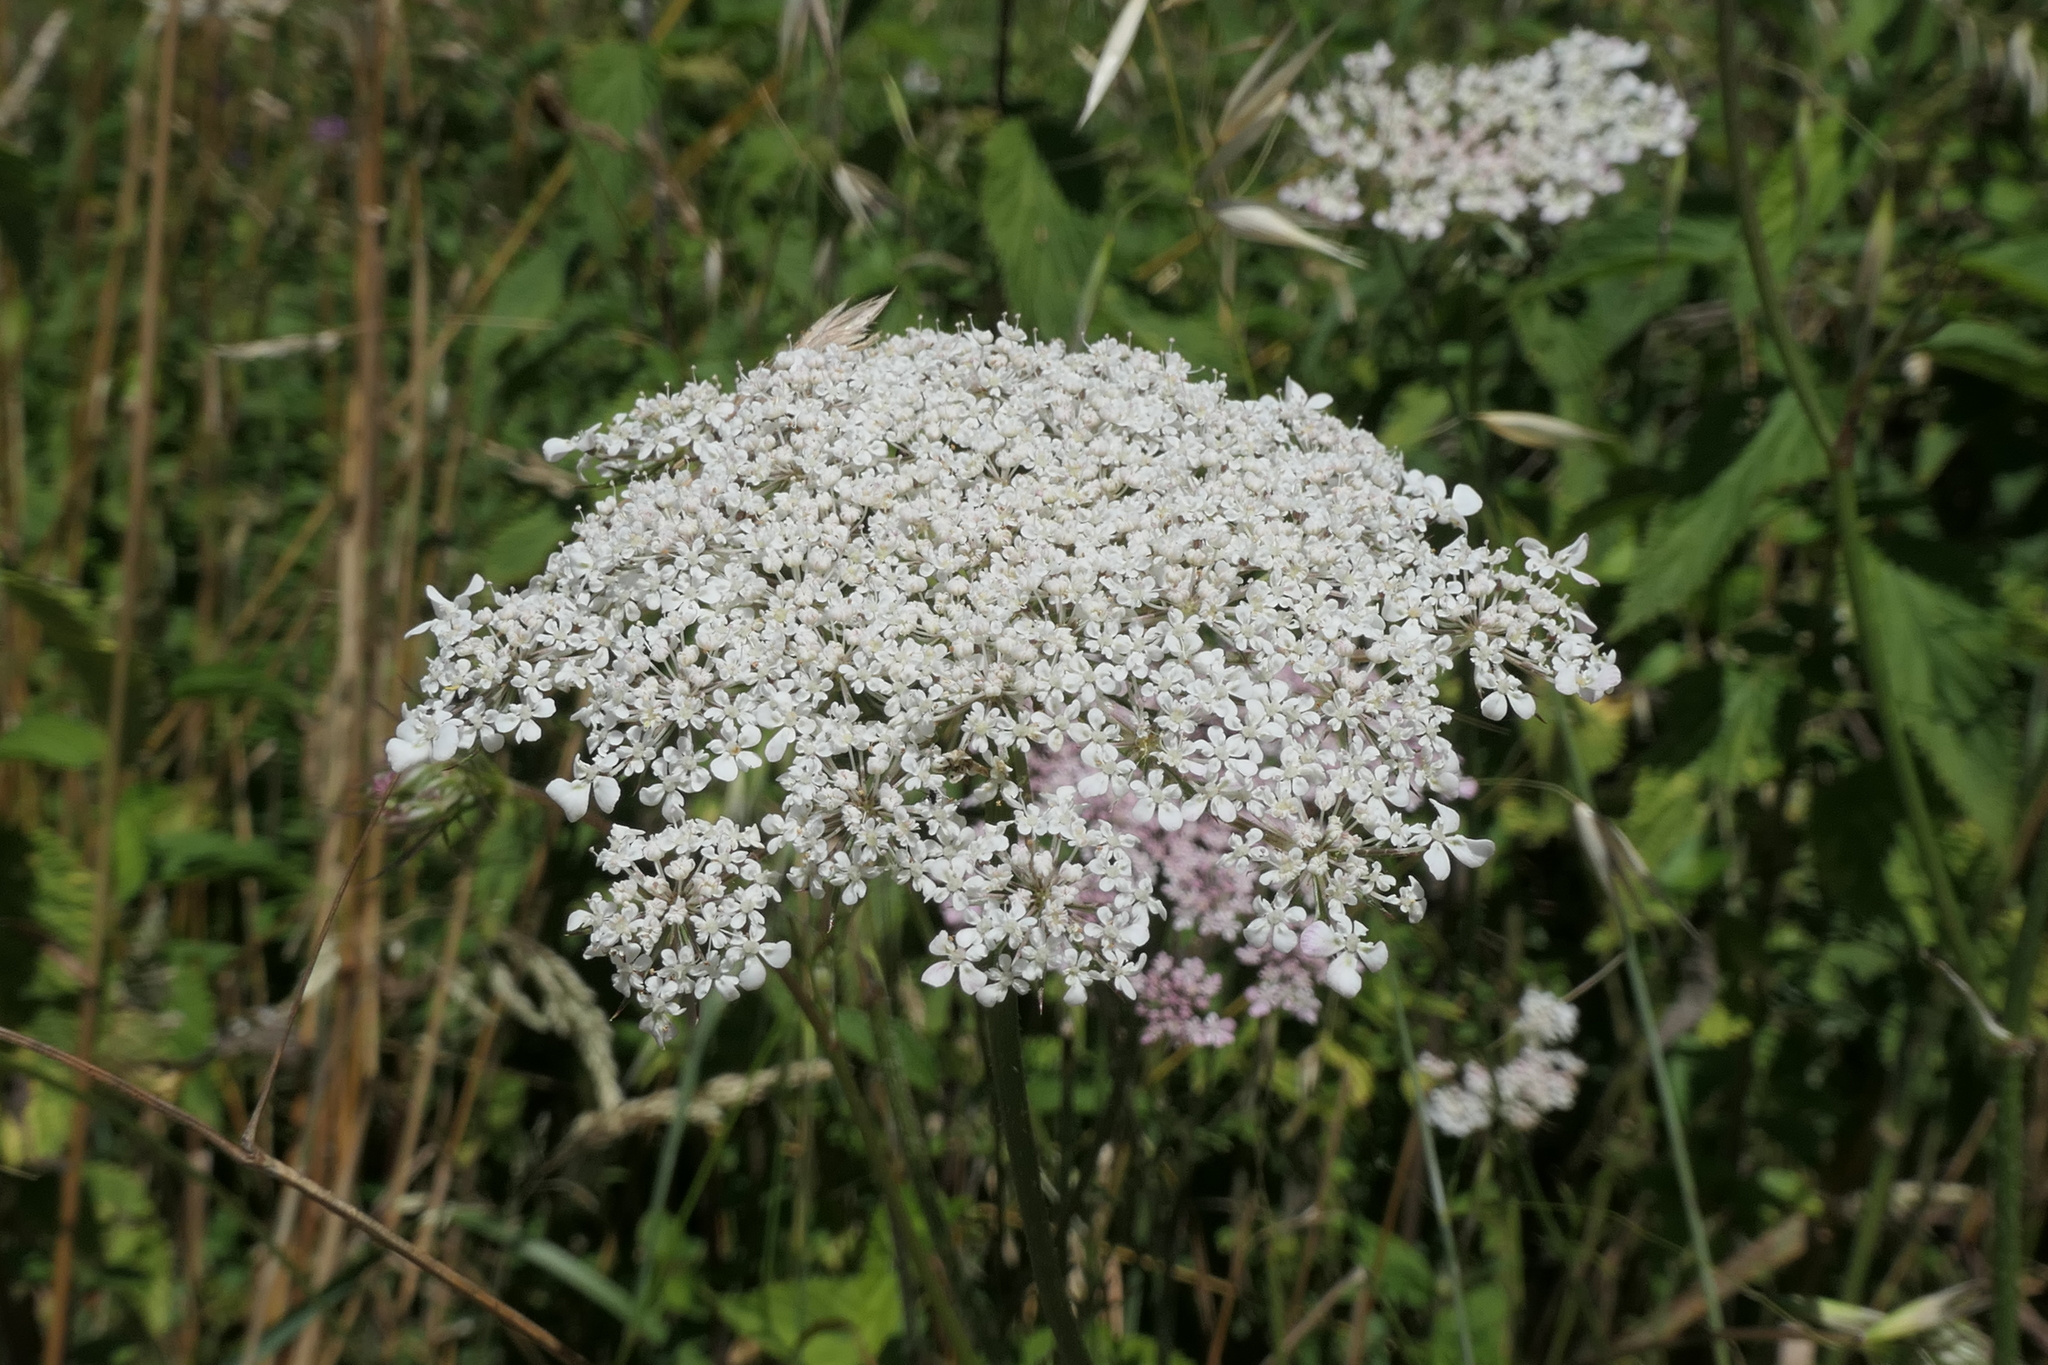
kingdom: Plantae
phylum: Tracheophyta
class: Magnoliopsida
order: Apiales
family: Apiaceae
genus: Daucus
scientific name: Daucus carota
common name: Wild carrot
